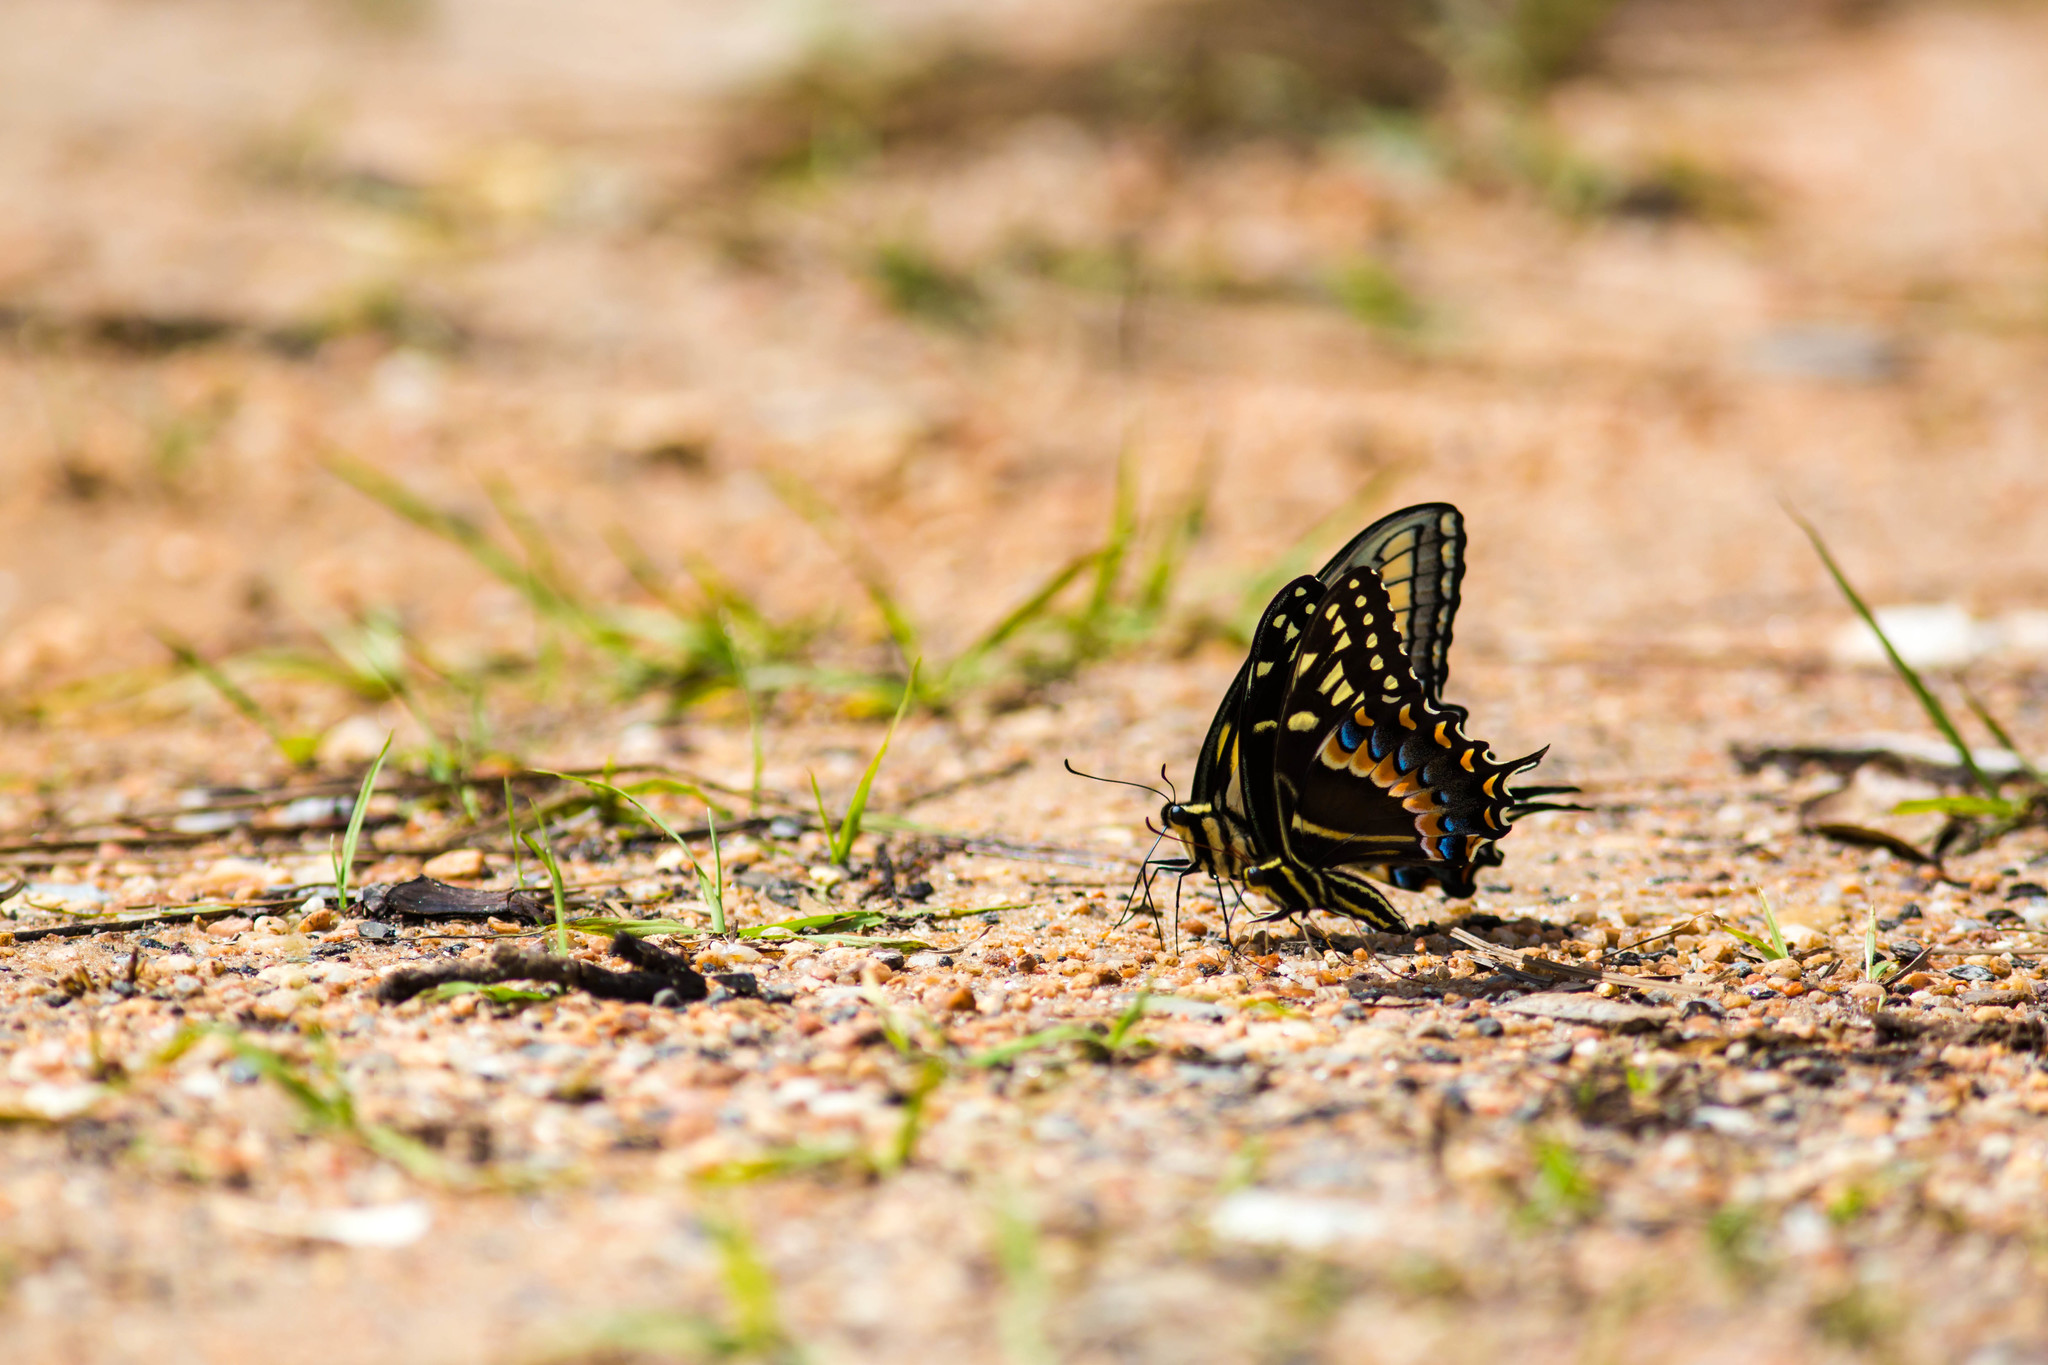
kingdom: Animalia
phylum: Arthropoda
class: Insecta
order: Lepidoptera
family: Papilionidae
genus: Papilio
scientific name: Papilio palamedes
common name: Palamedes swallowtail
